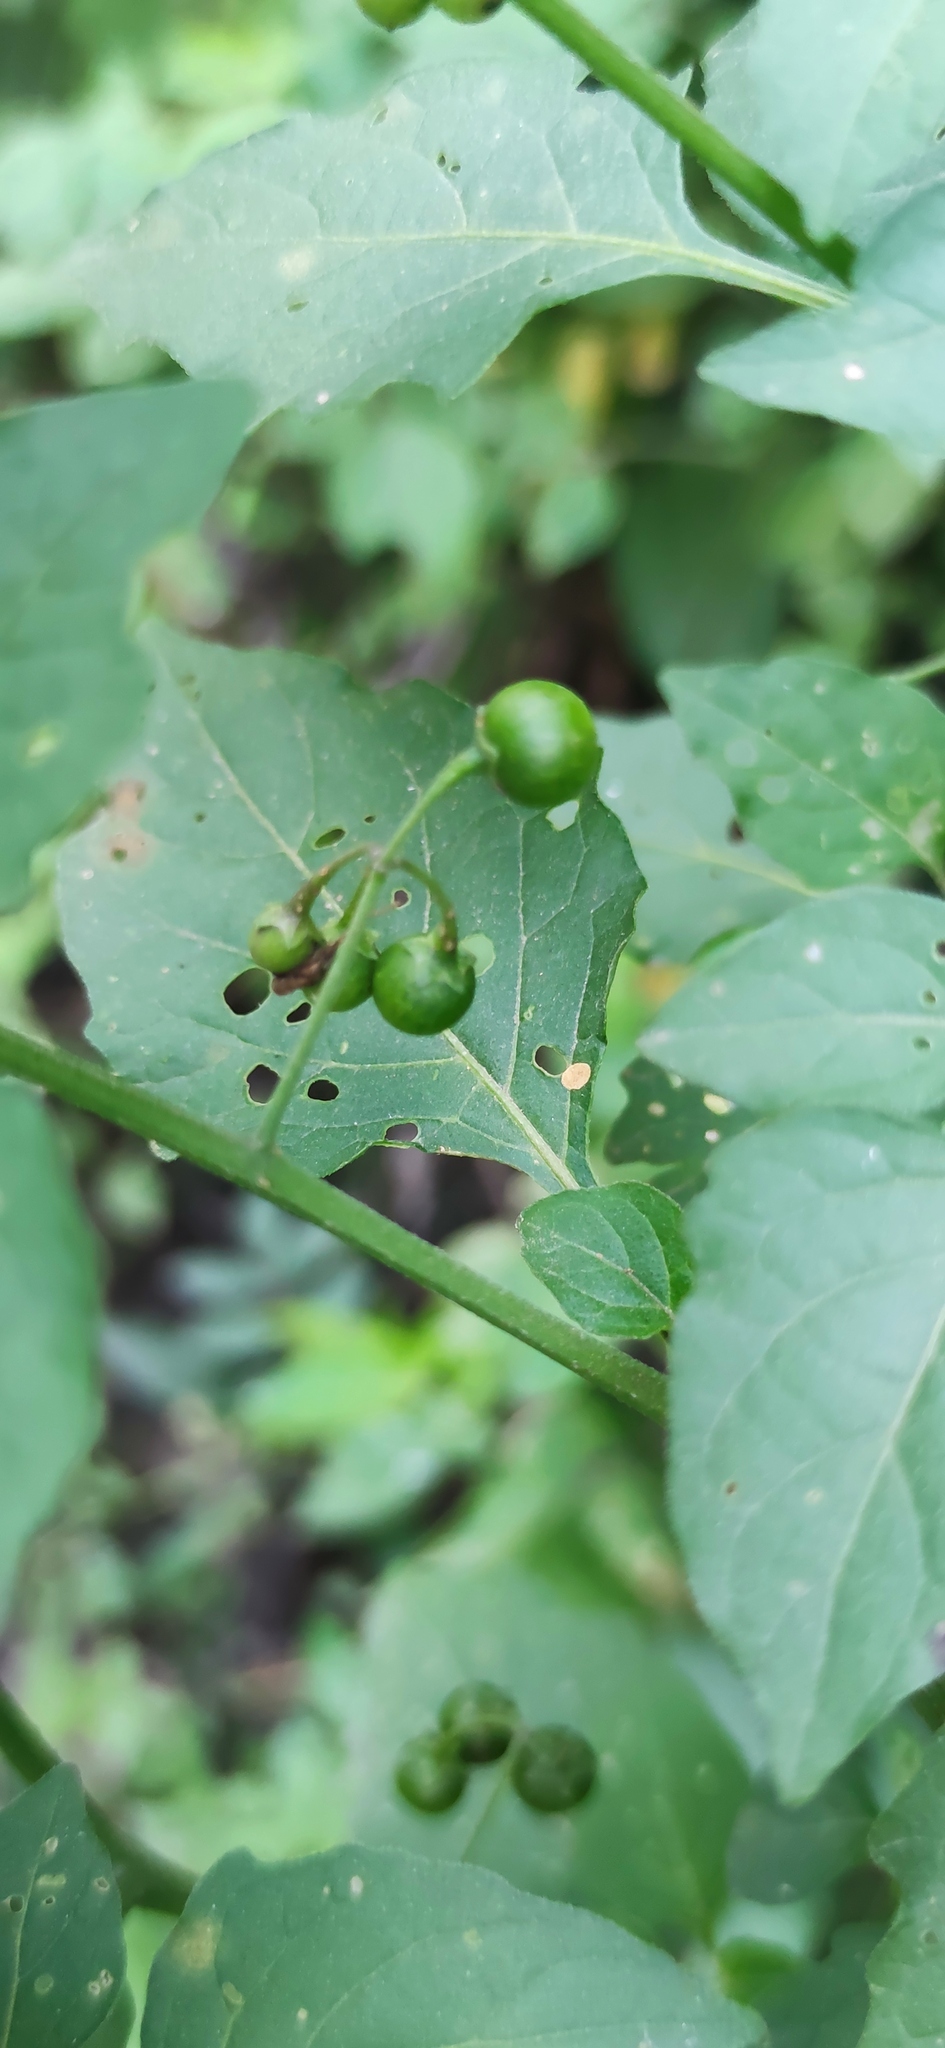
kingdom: Plantae
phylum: Tracheophyta
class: Magnoliopsida
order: Solanales
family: Solanaceae
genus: Solanum
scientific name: Solanum nigrescens
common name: Divine nightshade
